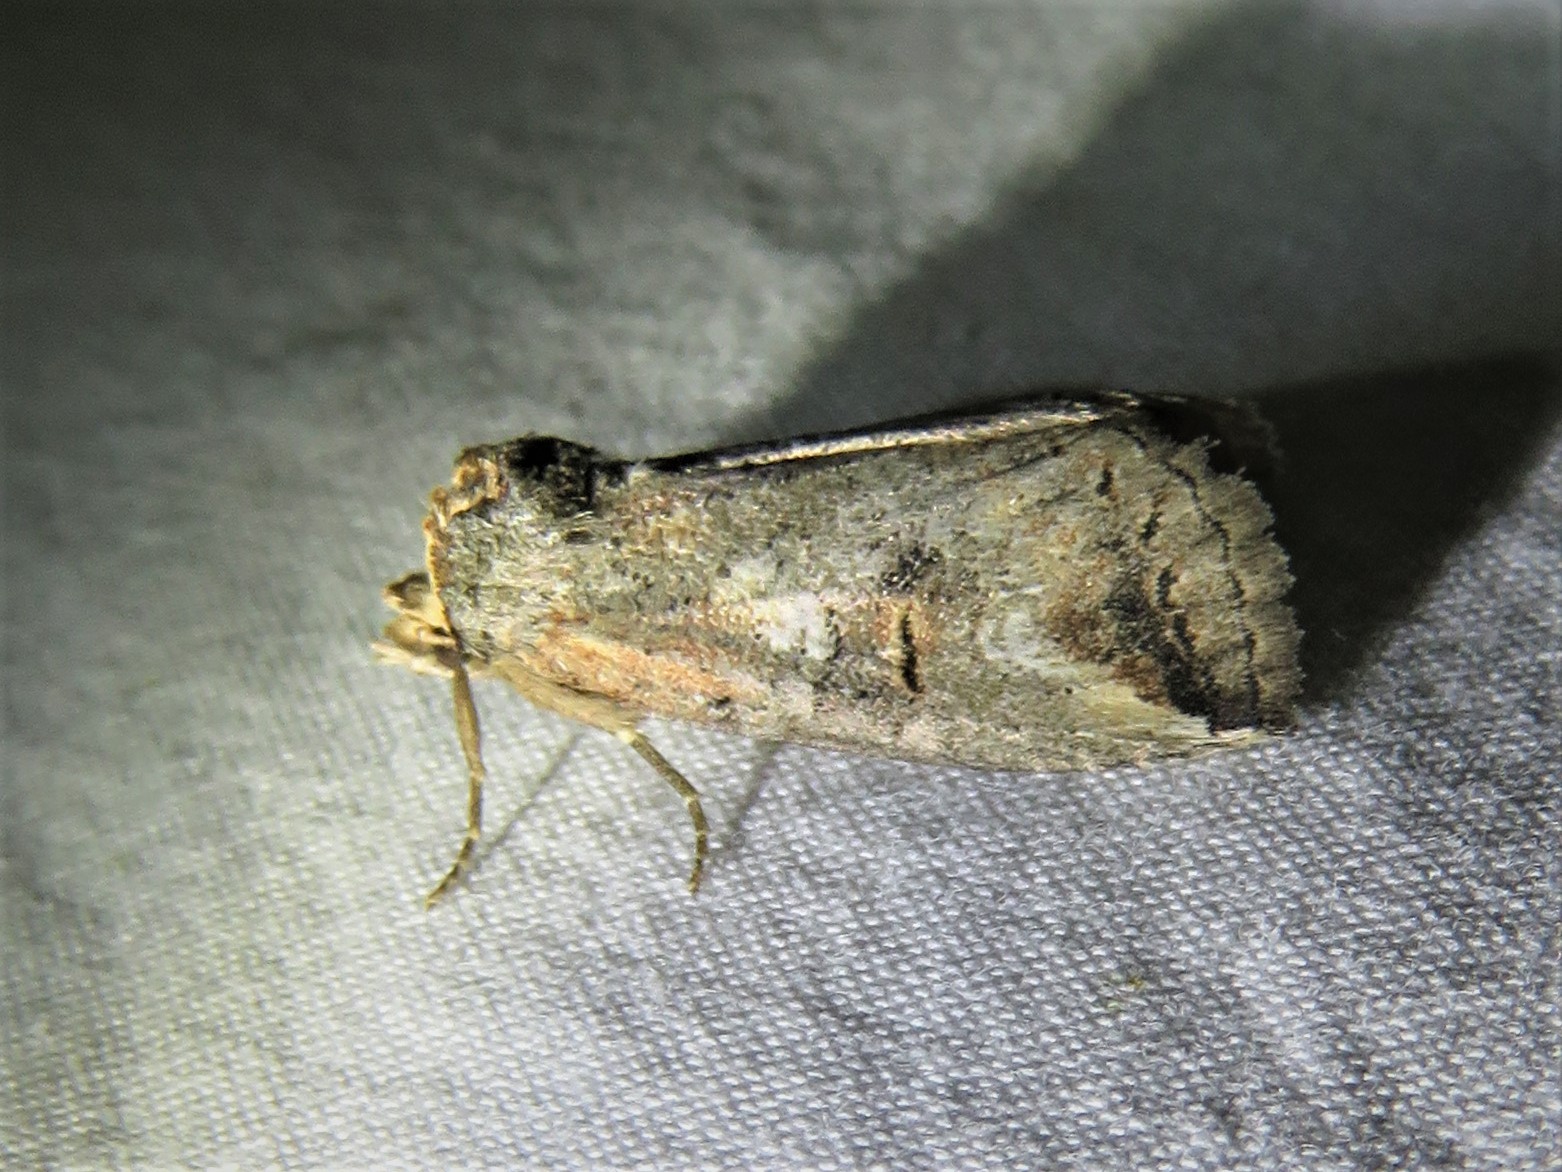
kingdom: Animalia
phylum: Arthropoda
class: Insecta
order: Lepidoptera
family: Notodontidae
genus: Elasmia
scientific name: Elasmia packardii
